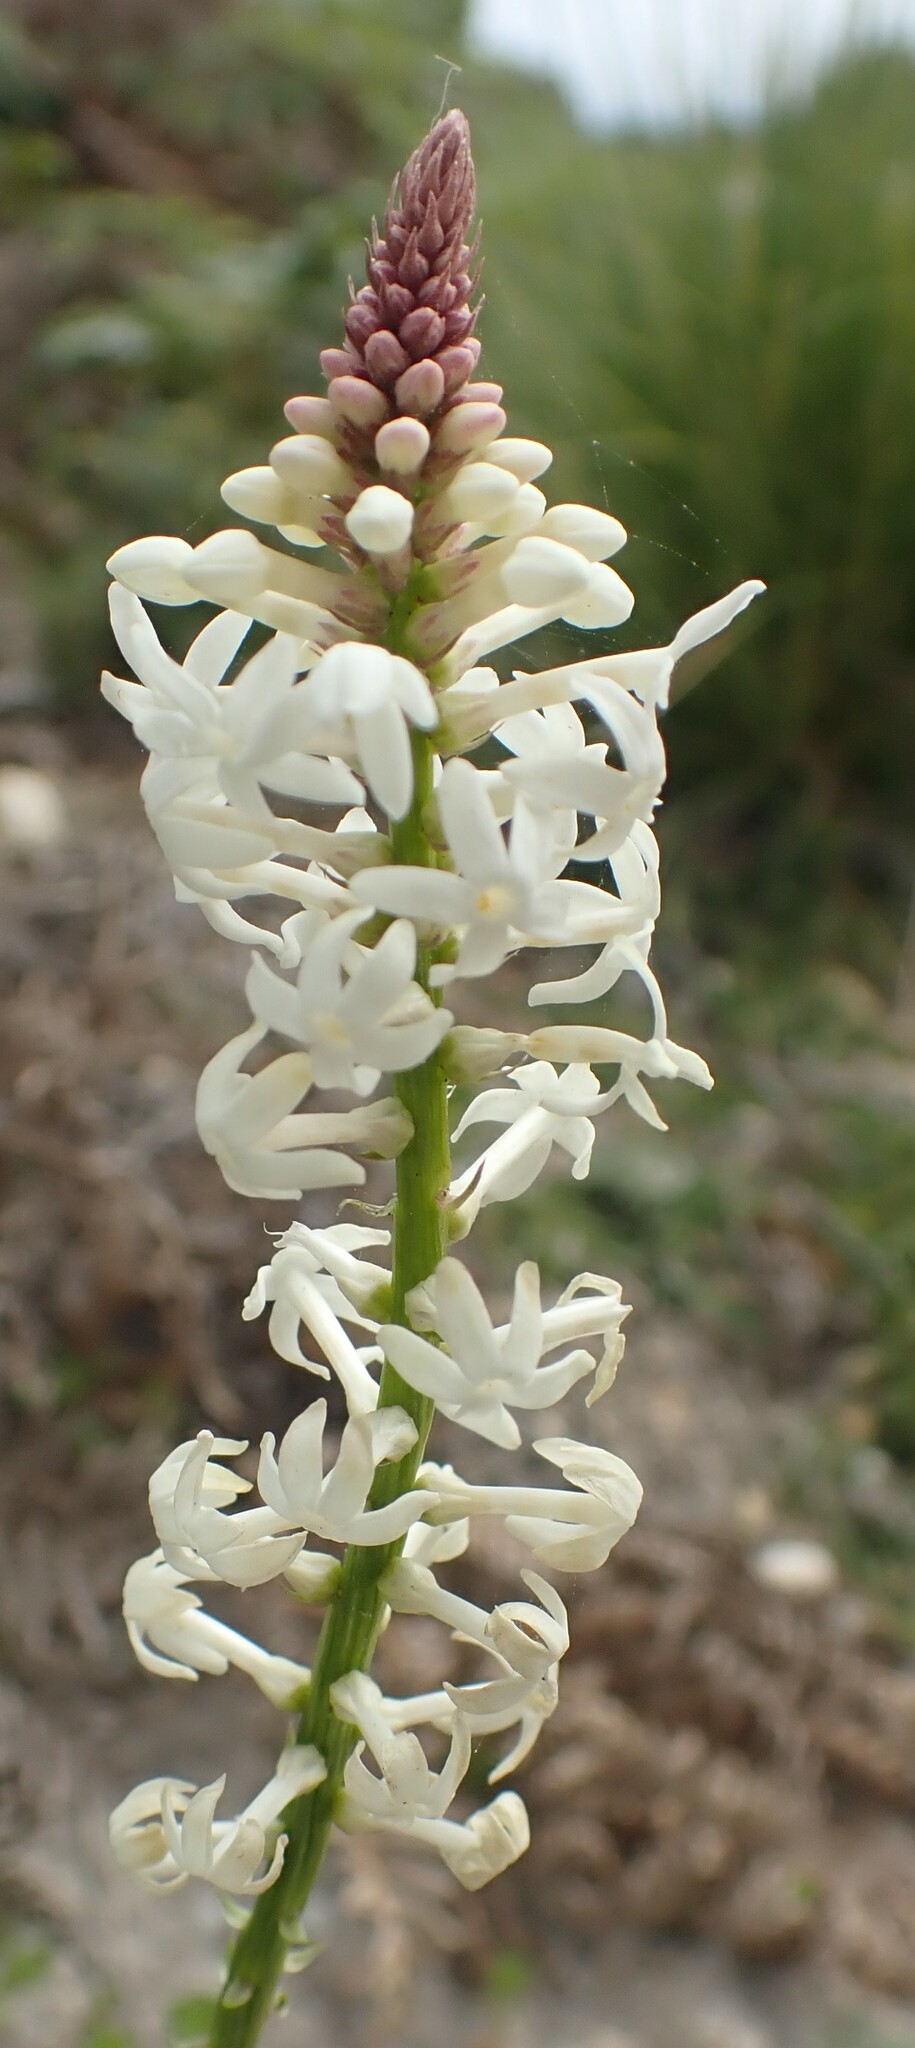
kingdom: Plantae
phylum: Tracheophyta
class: Magnoliopsida
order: Celastrales
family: Celastraceae
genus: Stackhousia
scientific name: Stackhousia monogyna
